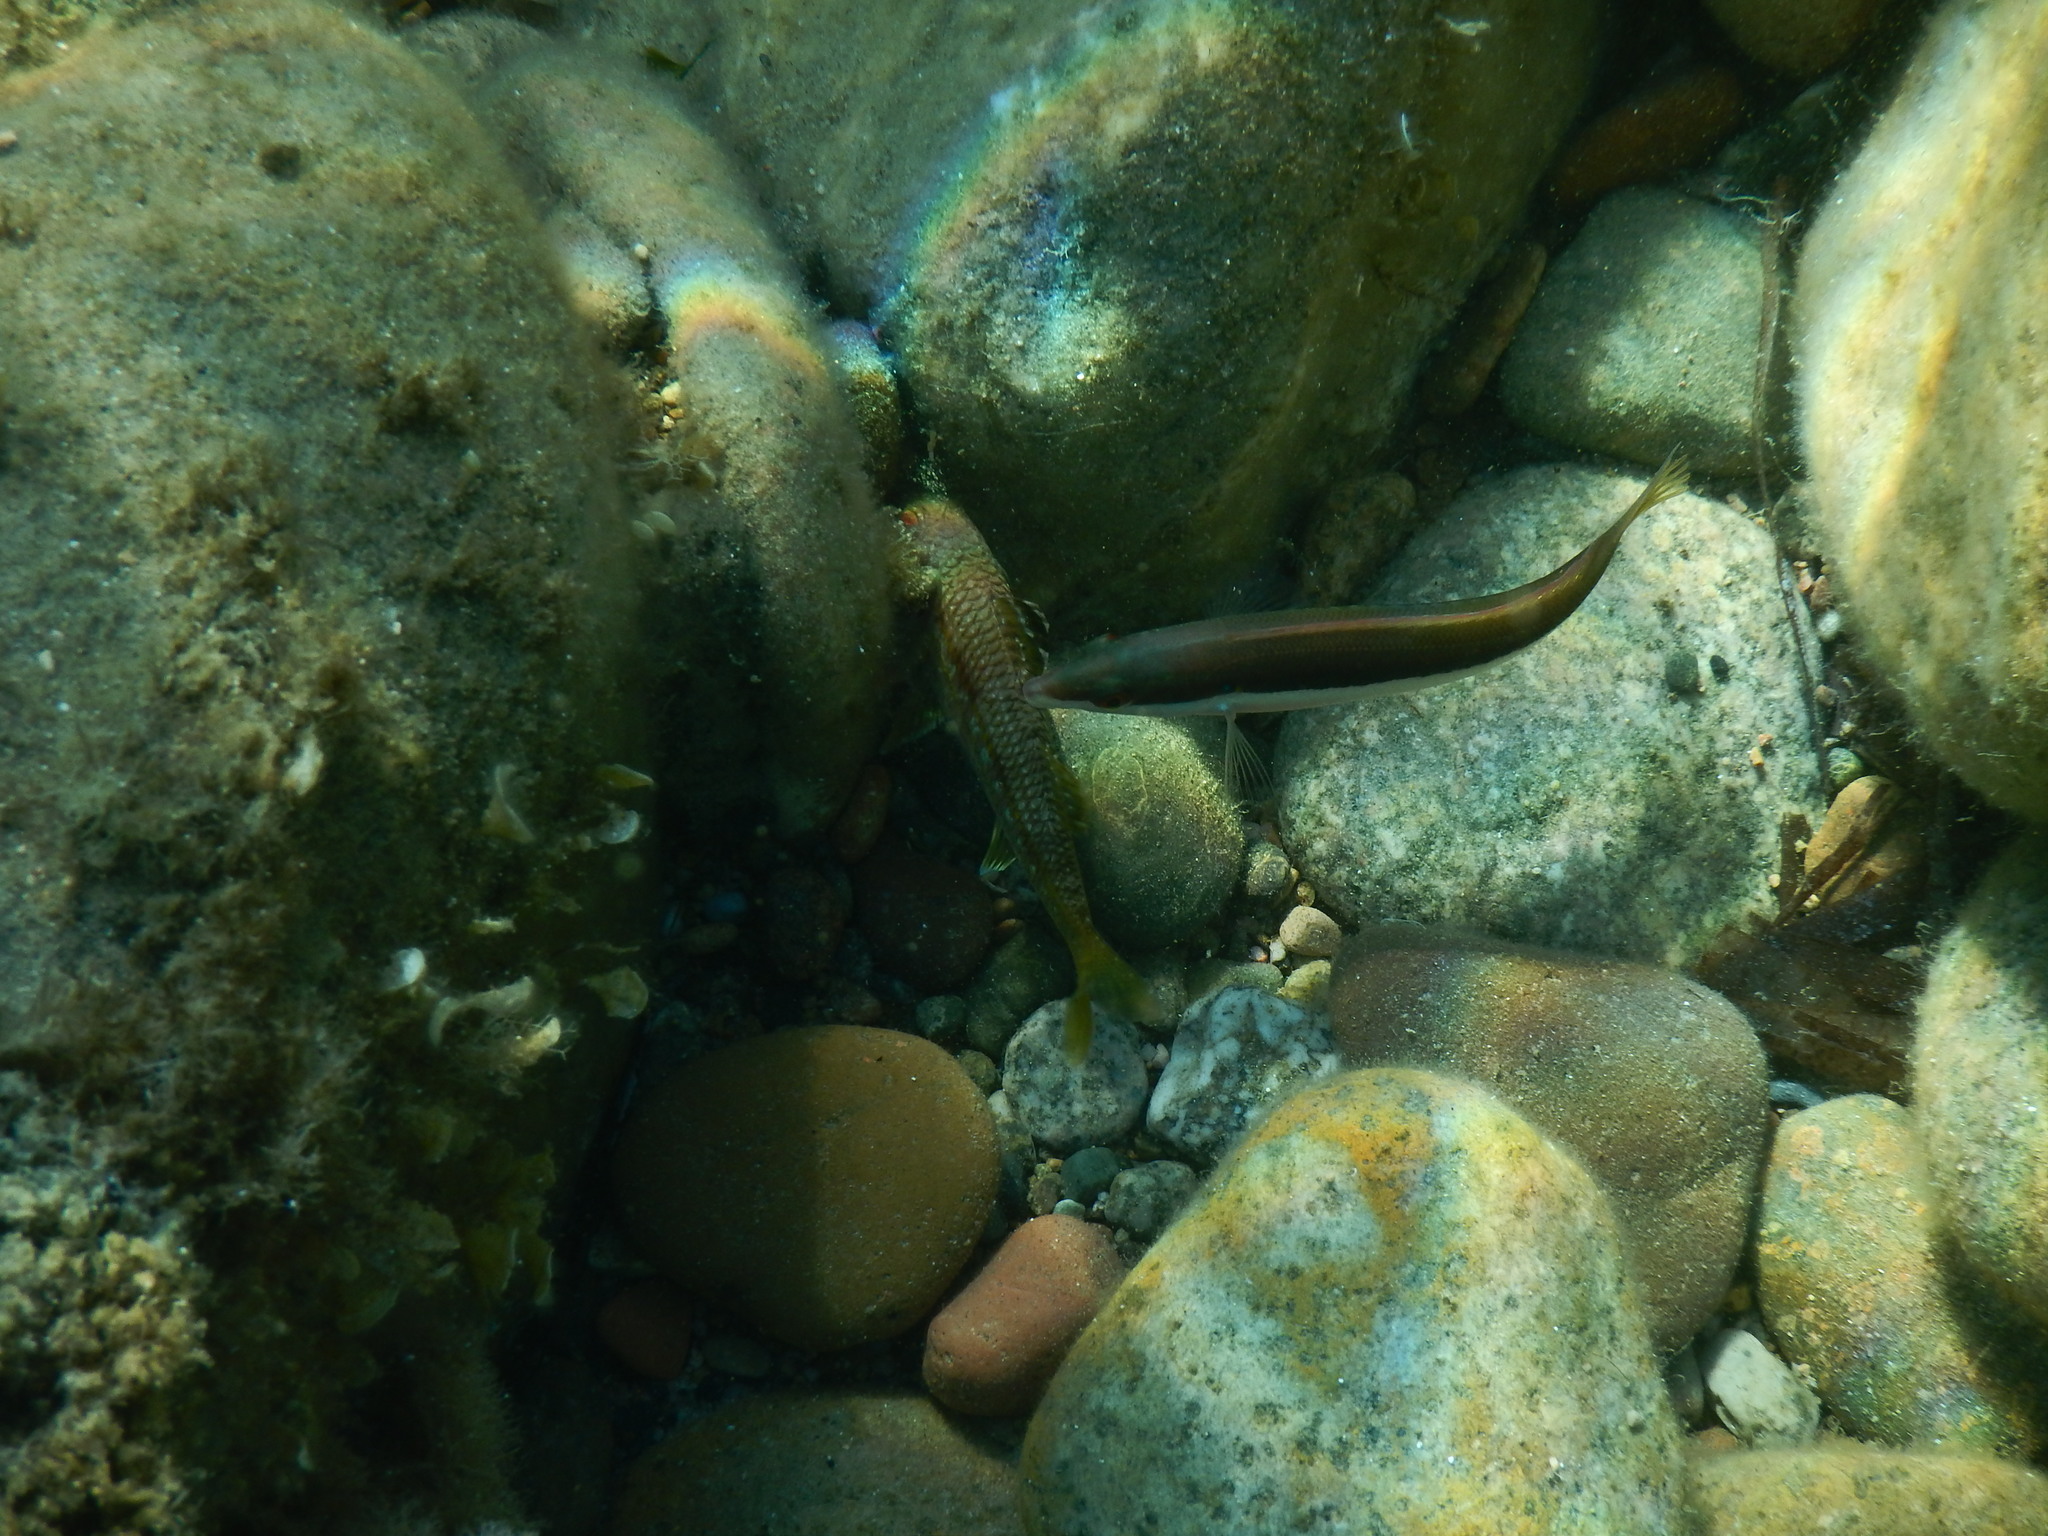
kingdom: Animalia
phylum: Chordata
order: Perciformes
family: Labridae
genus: Coris
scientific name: Coris julis
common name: Rainbow wrasse
